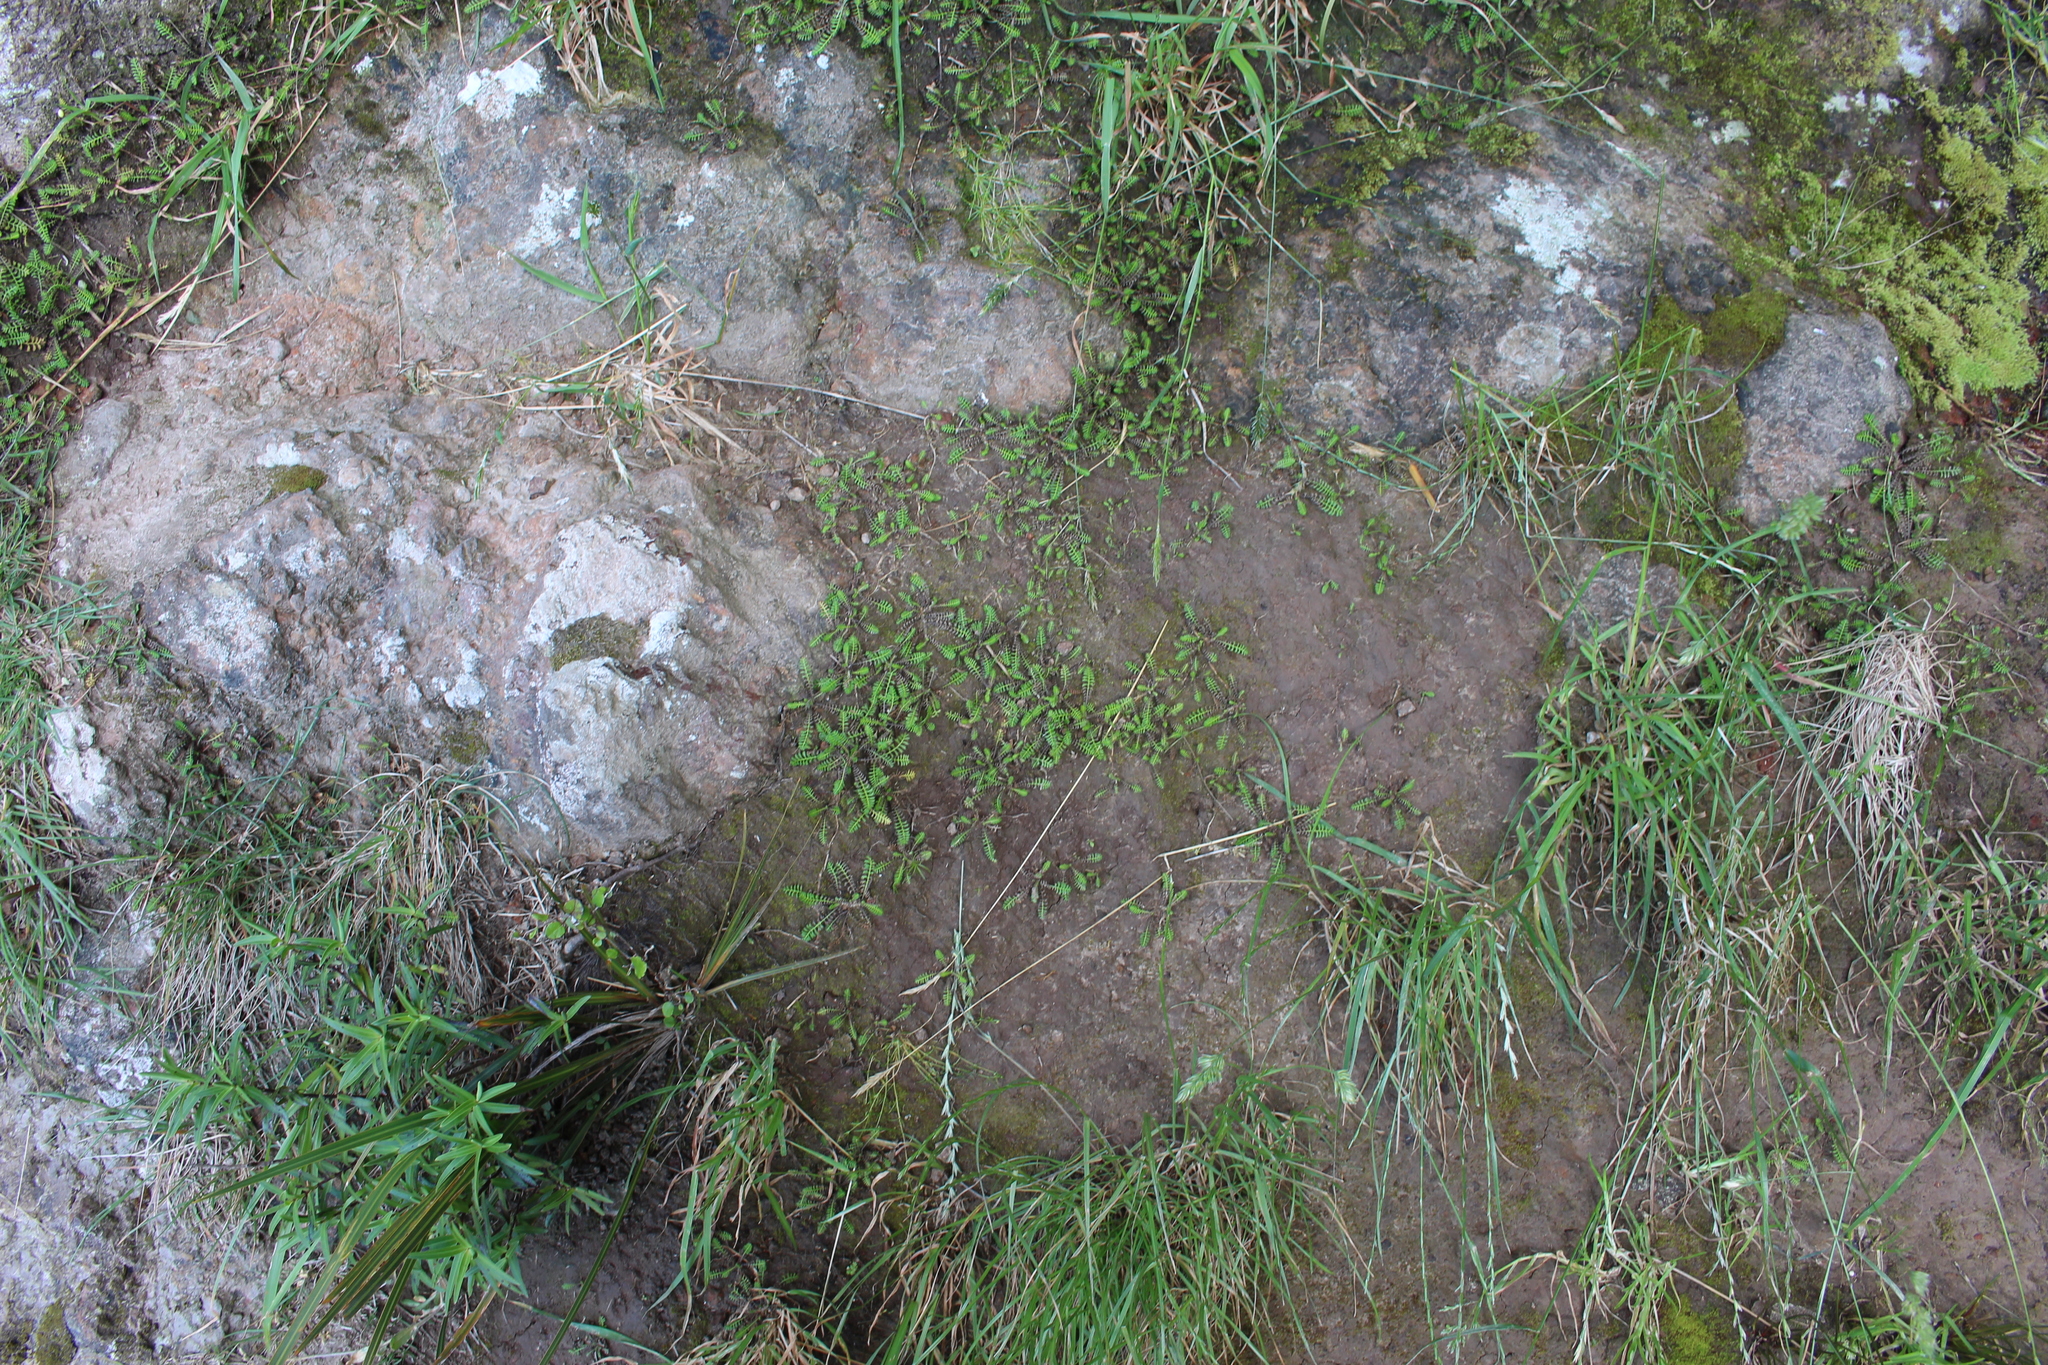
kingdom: Plantae
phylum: Tracheophyta
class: Magnoliopsida
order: Asterales
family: Asteraceae
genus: Leptinella
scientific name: Leptinella minor
